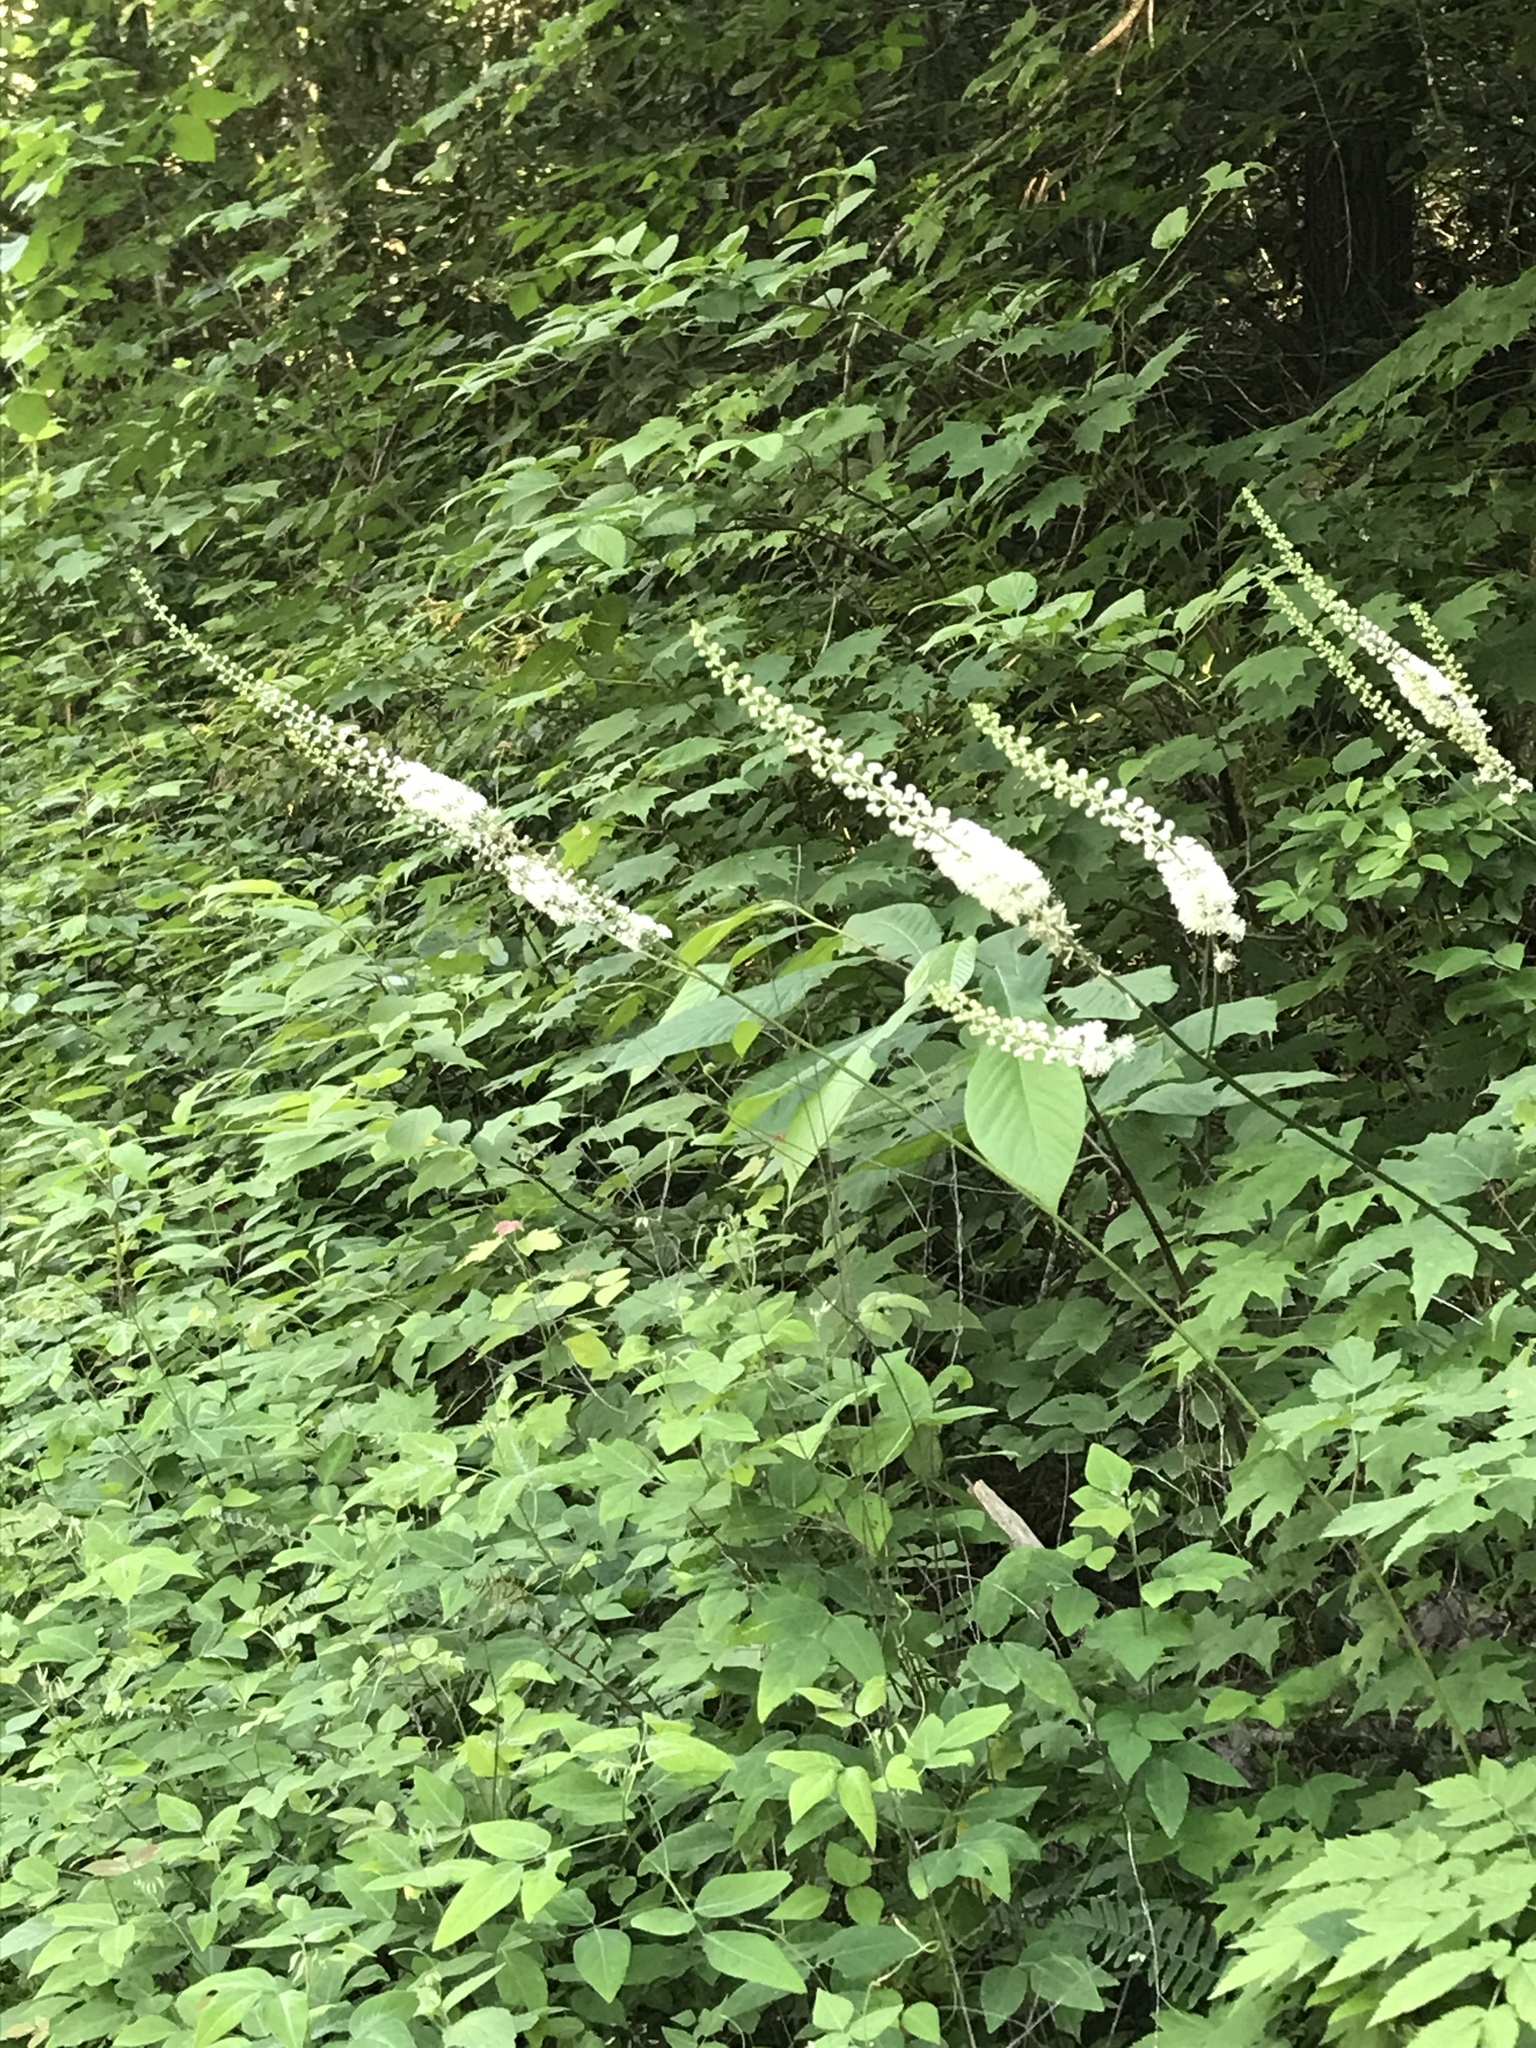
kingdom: Plantae
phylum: Tracheophyta
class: Magnoliopsida
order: Ranunculales
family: Ranunculaceae
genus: Actaea
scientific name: Actaea racemosa
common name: Black cohosh
